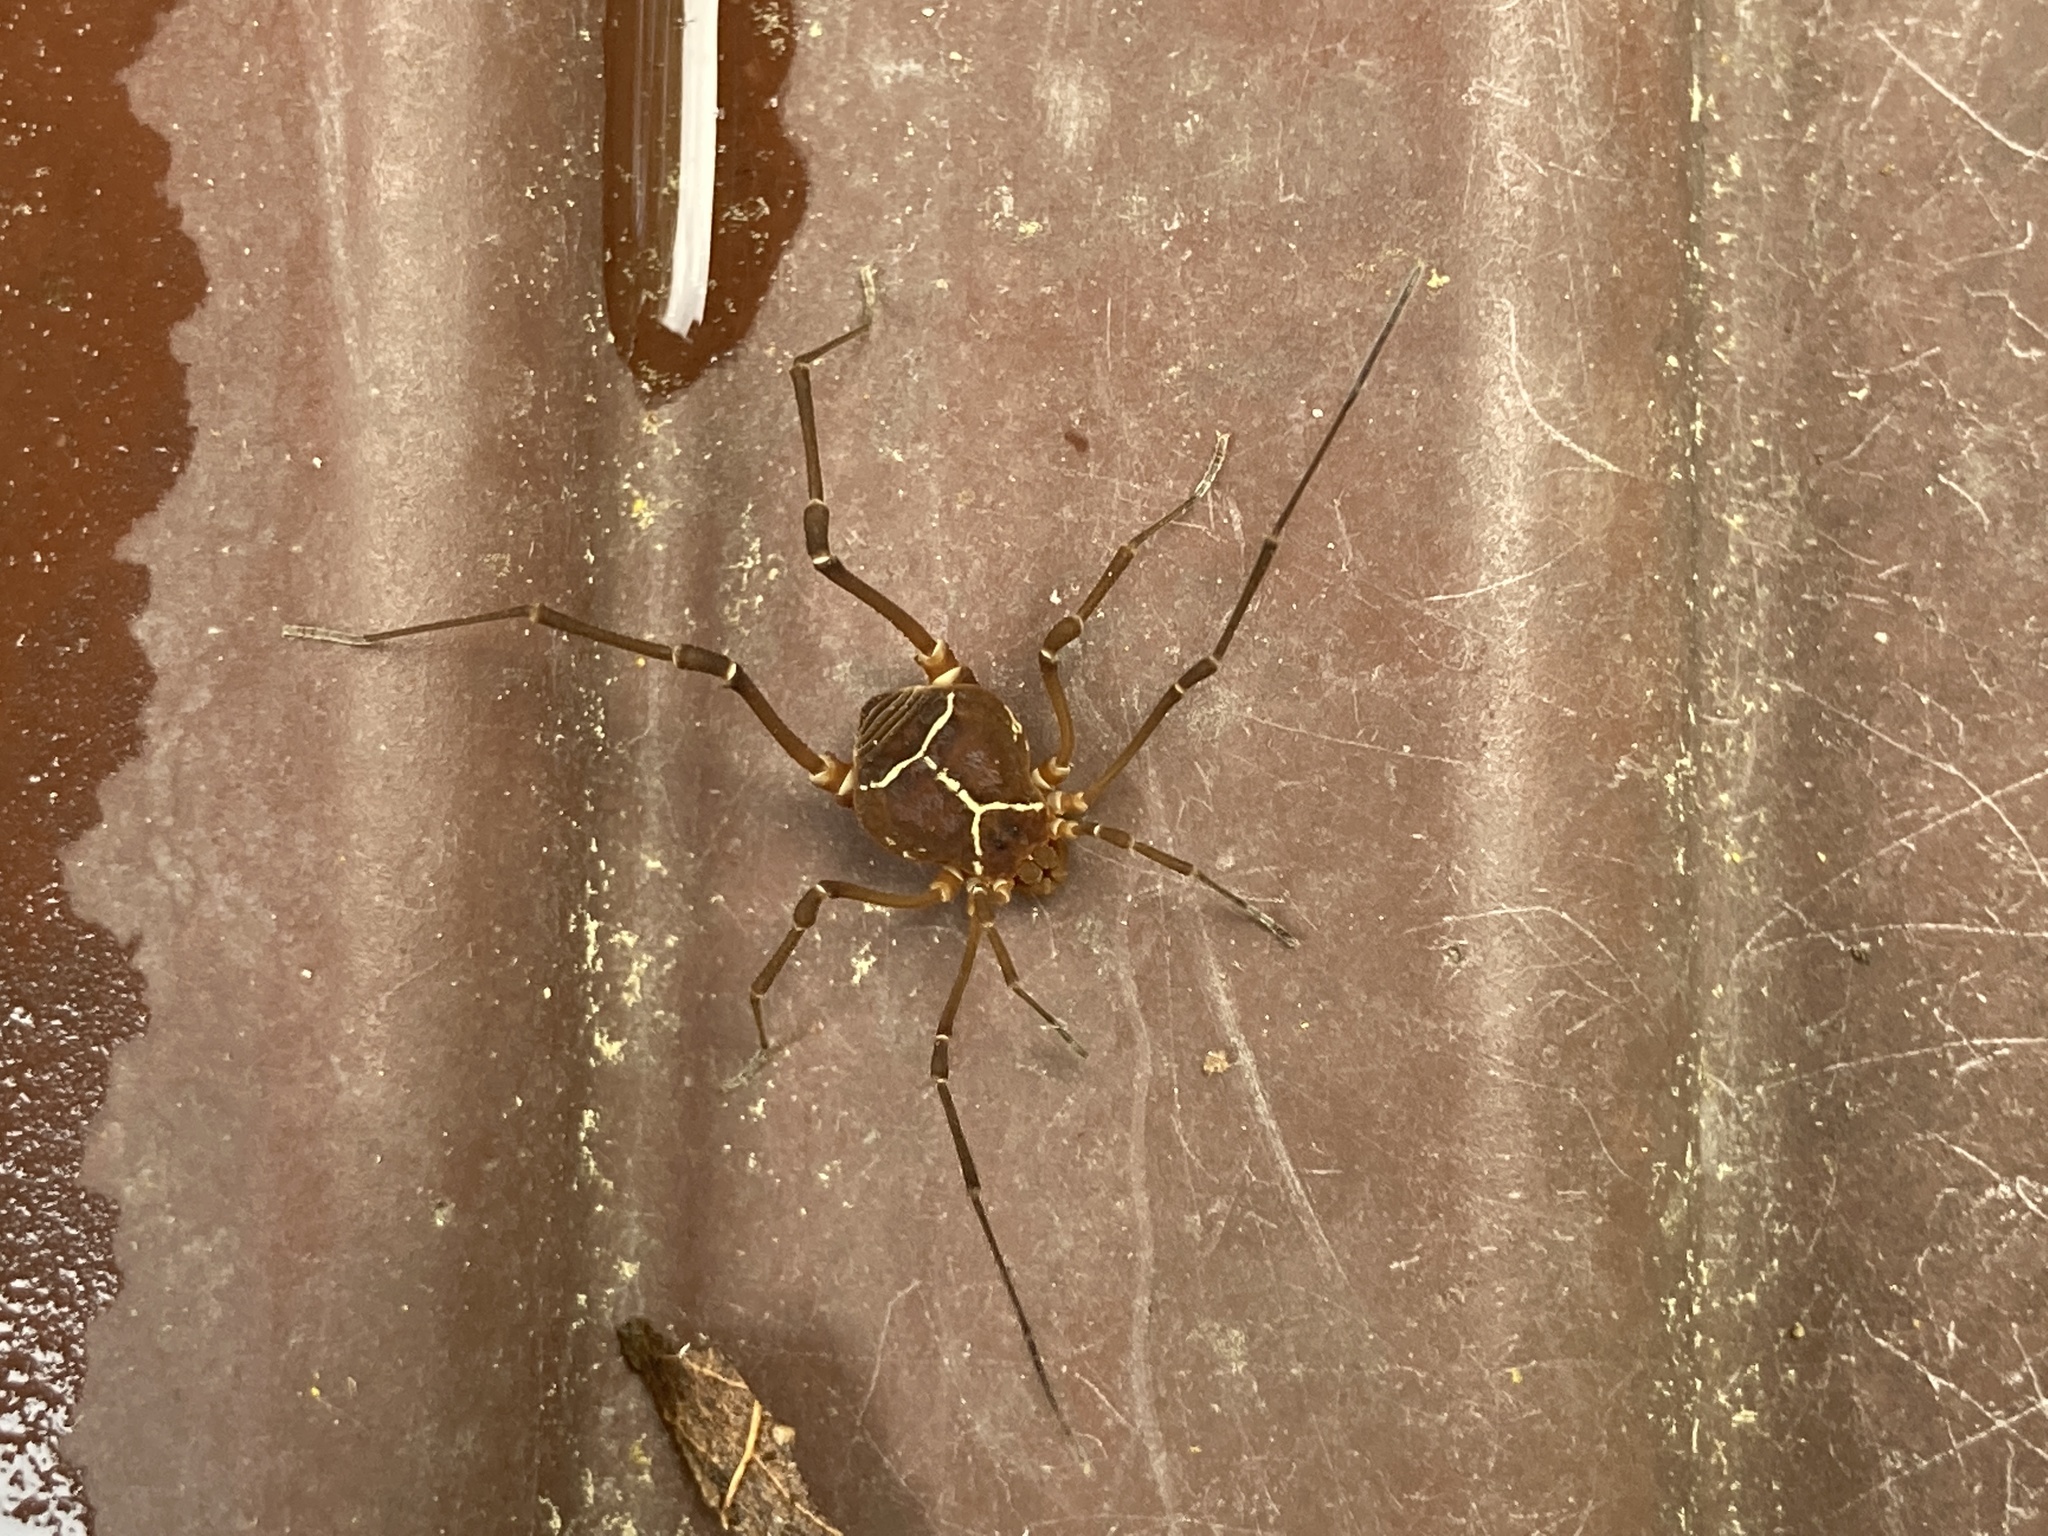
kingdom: Animalia
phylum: Arthropoda
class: Arachnida
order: Opiliones
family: Cosmetidae
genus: Libitioides
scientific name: Libitioides sayi
